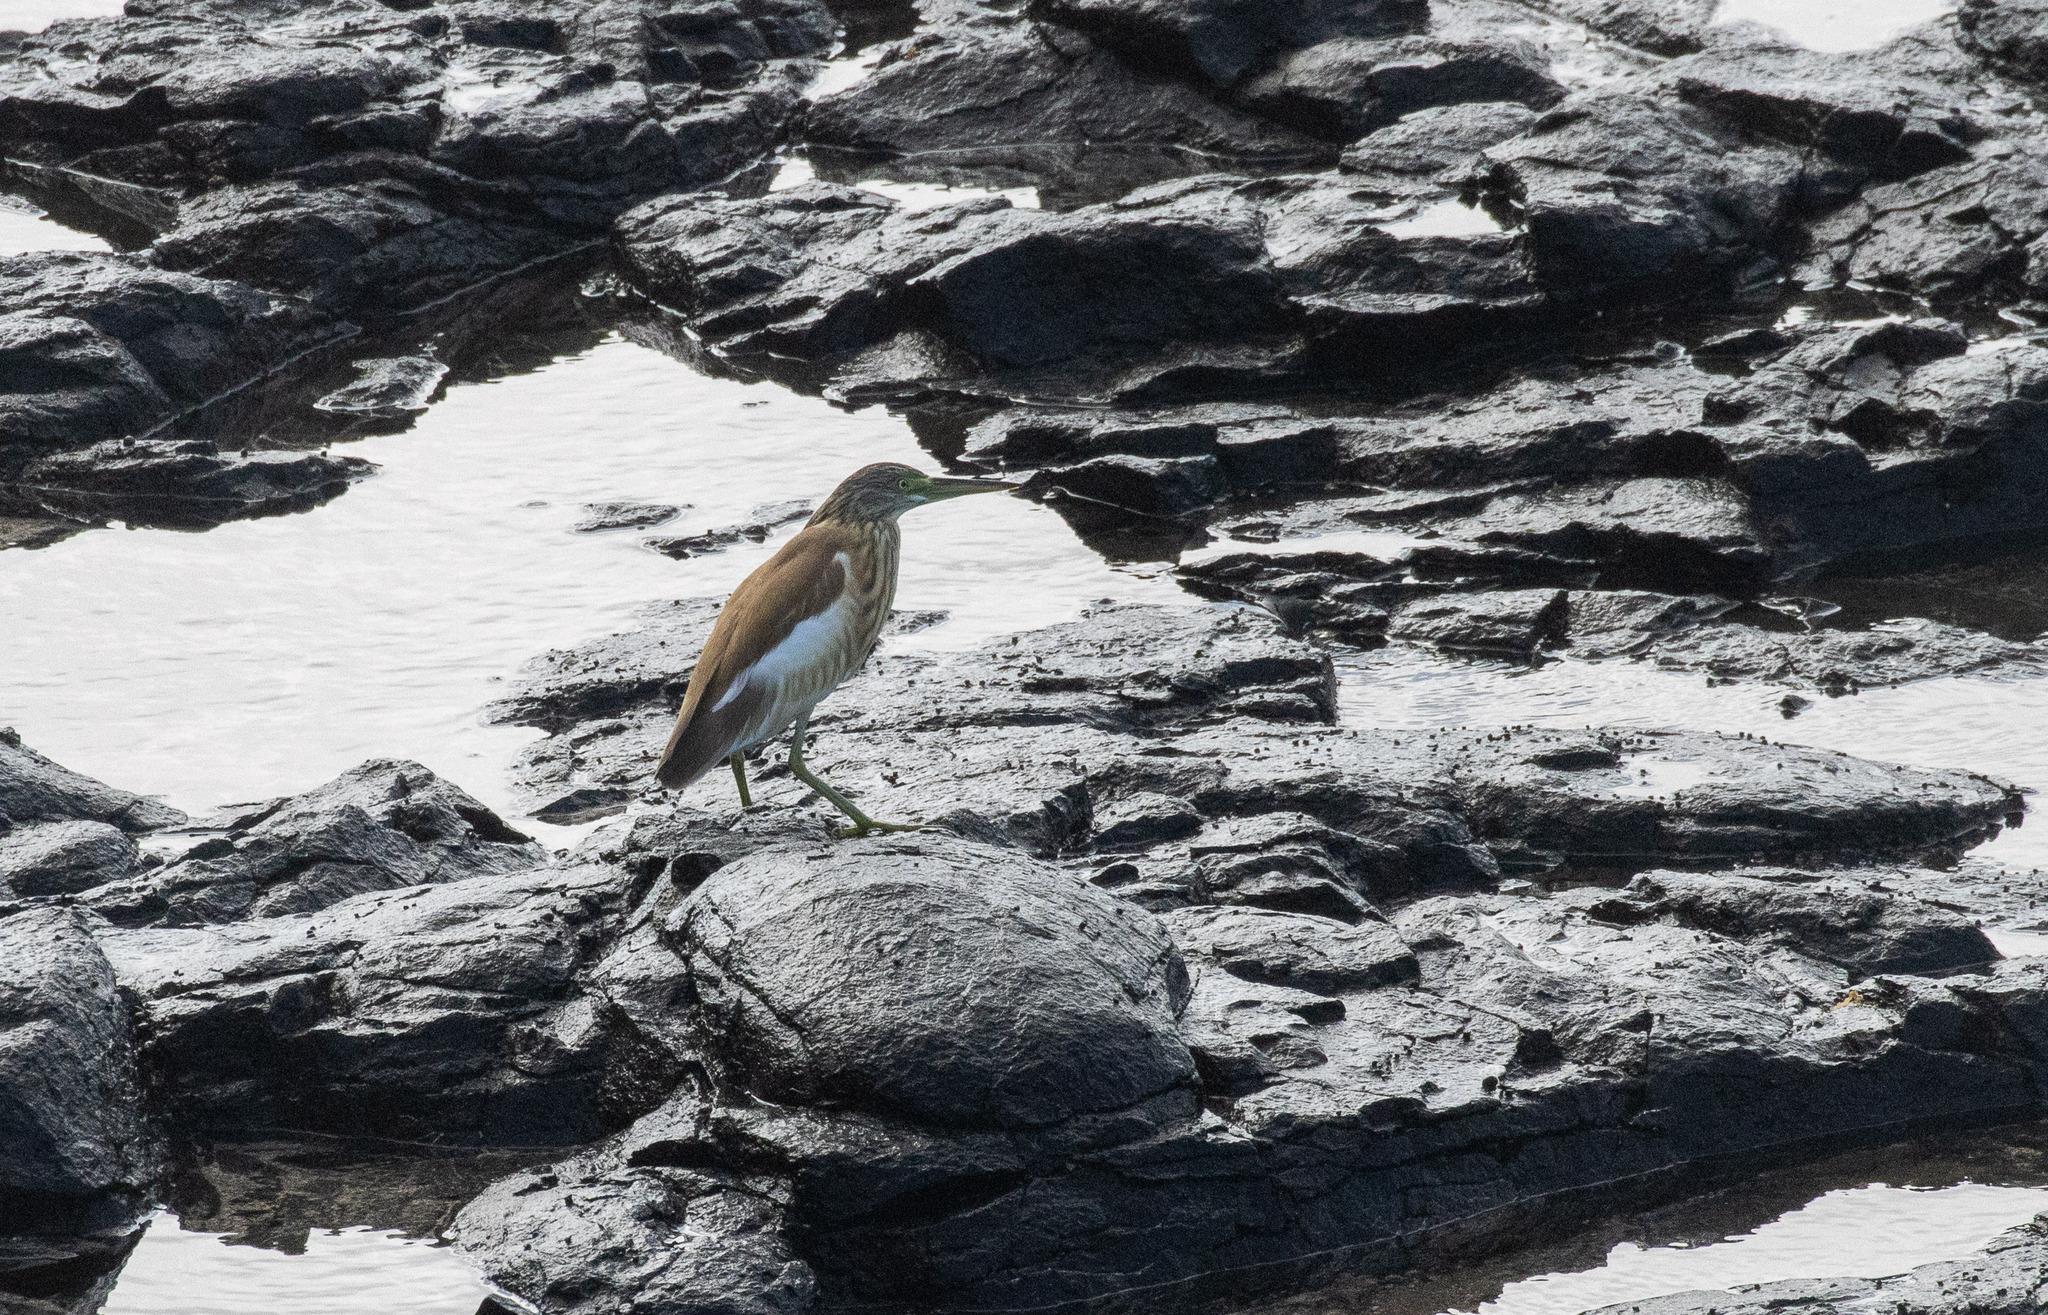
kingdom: Animalia
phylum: Chordata
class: Aves
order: Pelecaniformes
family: Ardeidae
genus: Ardeola
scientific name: Ardeola ralloides
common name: Squacco heron
